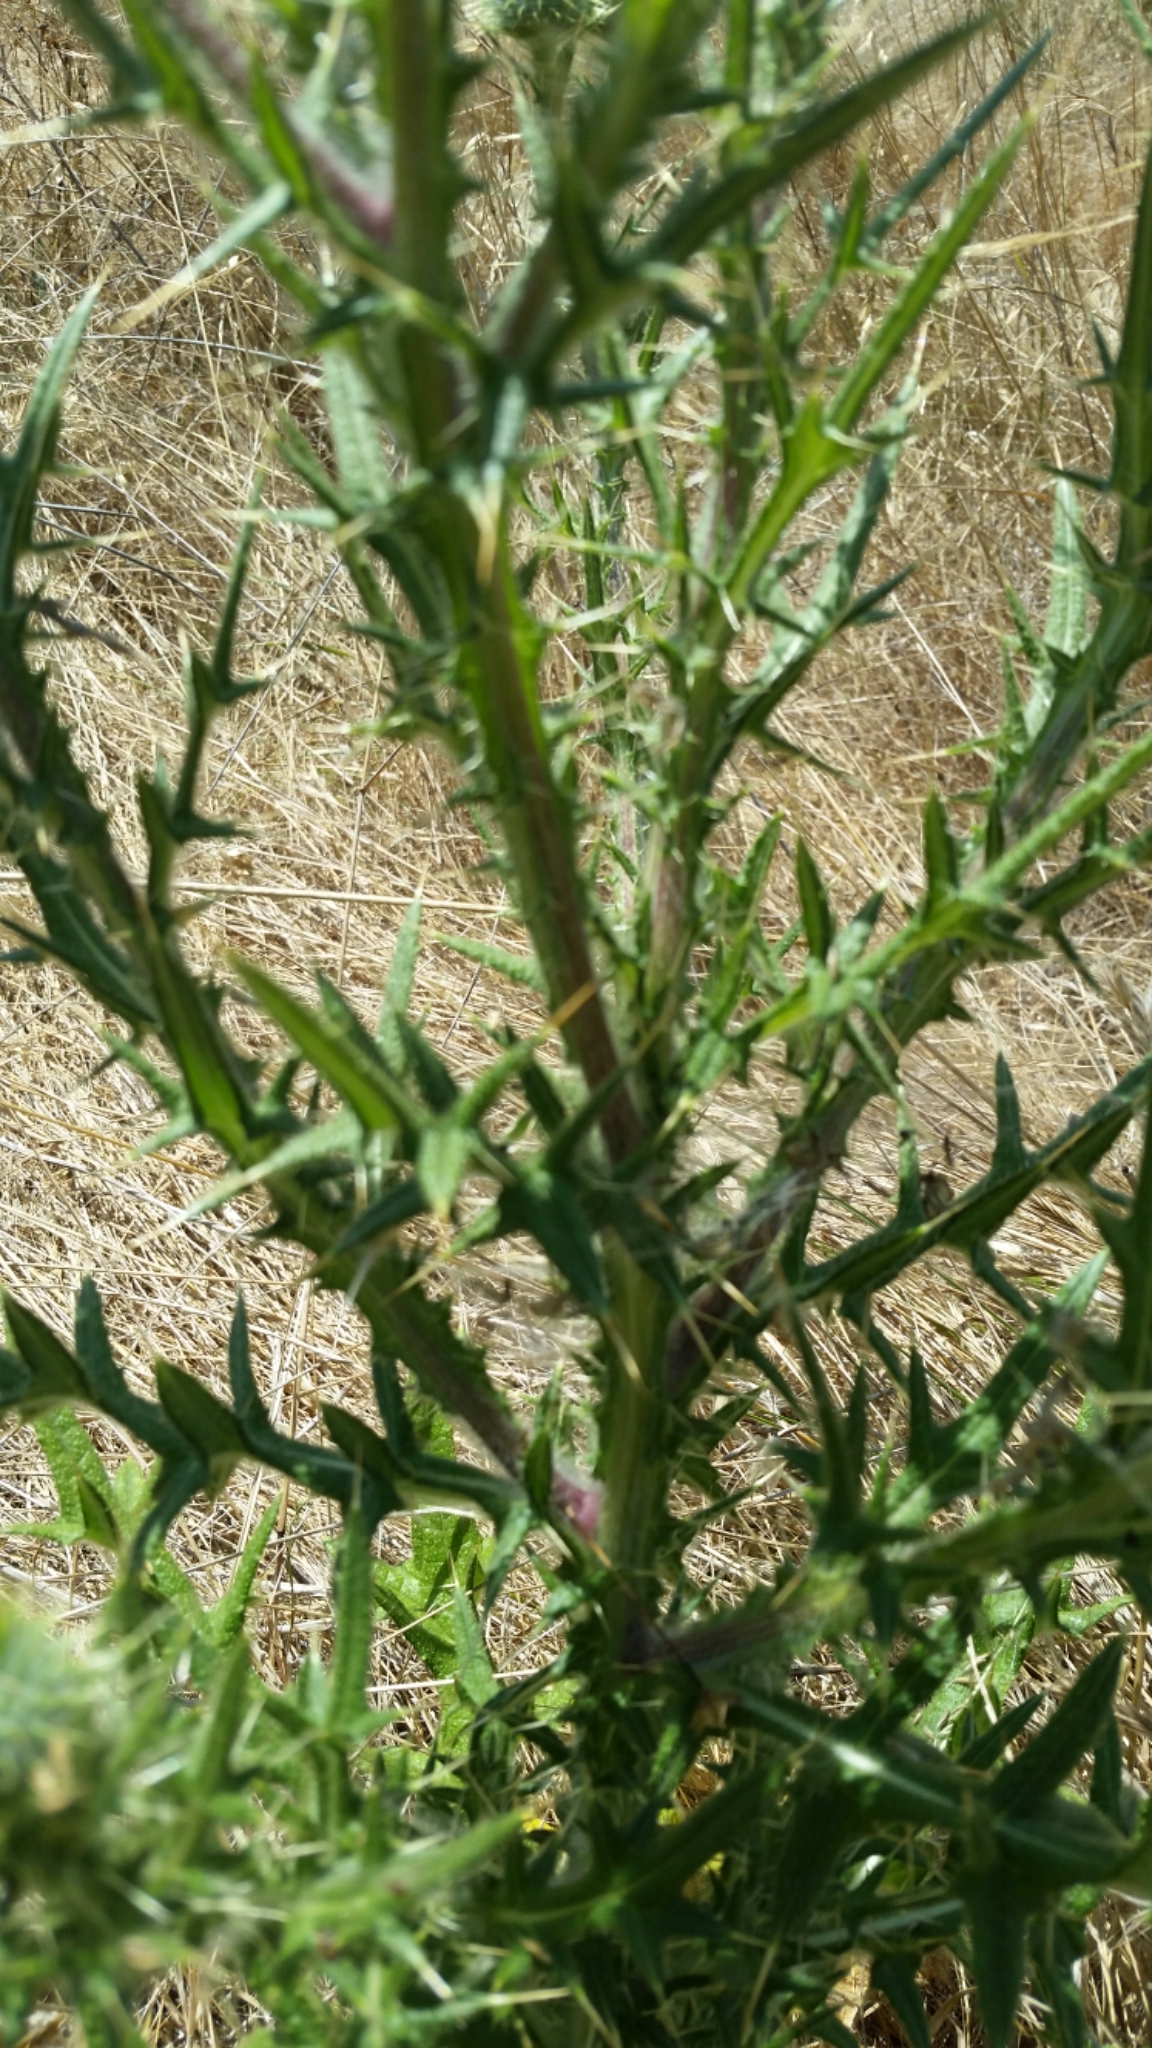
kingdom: Plantae
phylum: Tracheophyta
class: Magnoliopsida
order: Asterales
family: Asteraceae
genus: Cirsium
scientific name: Cirsium vulgare
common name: Bull thistle
